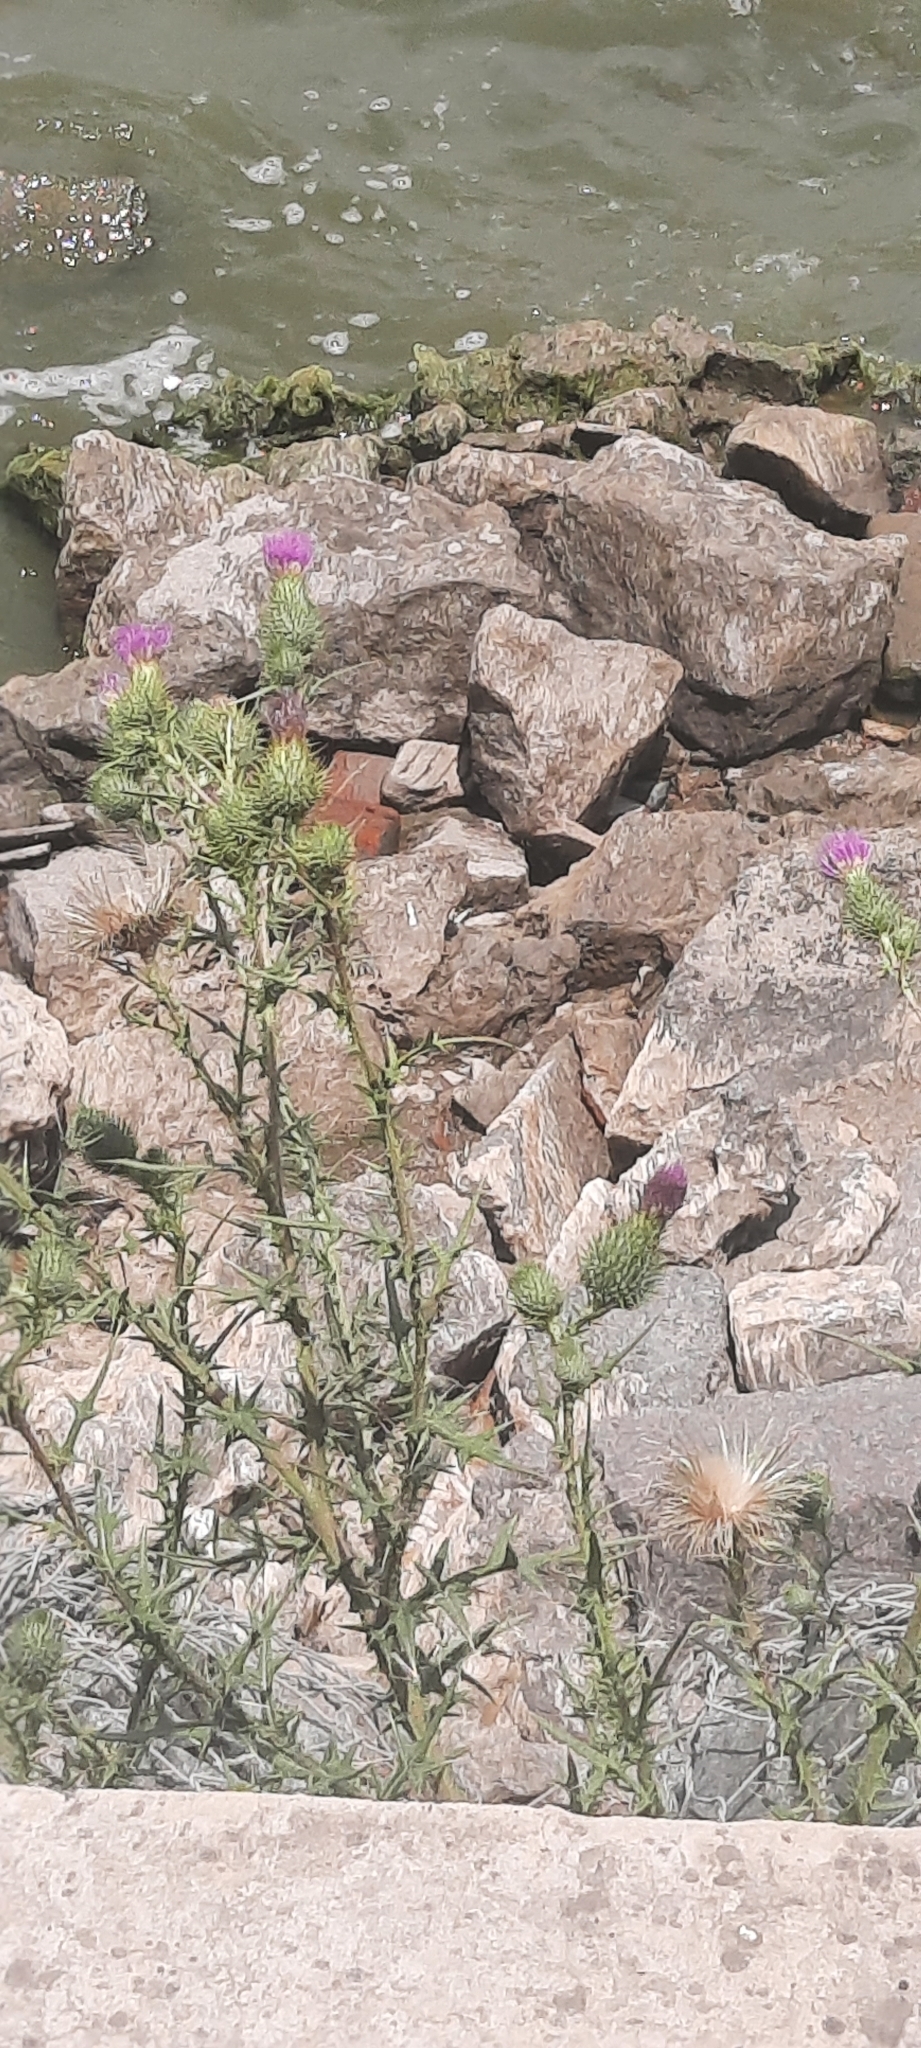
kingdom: Plantae
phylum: Tracheophyta
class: Magnoliopsida
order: Asterales
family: Asteraceae
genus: Carduus
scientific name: Carduus acanthoides
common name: Plumeless thistle
